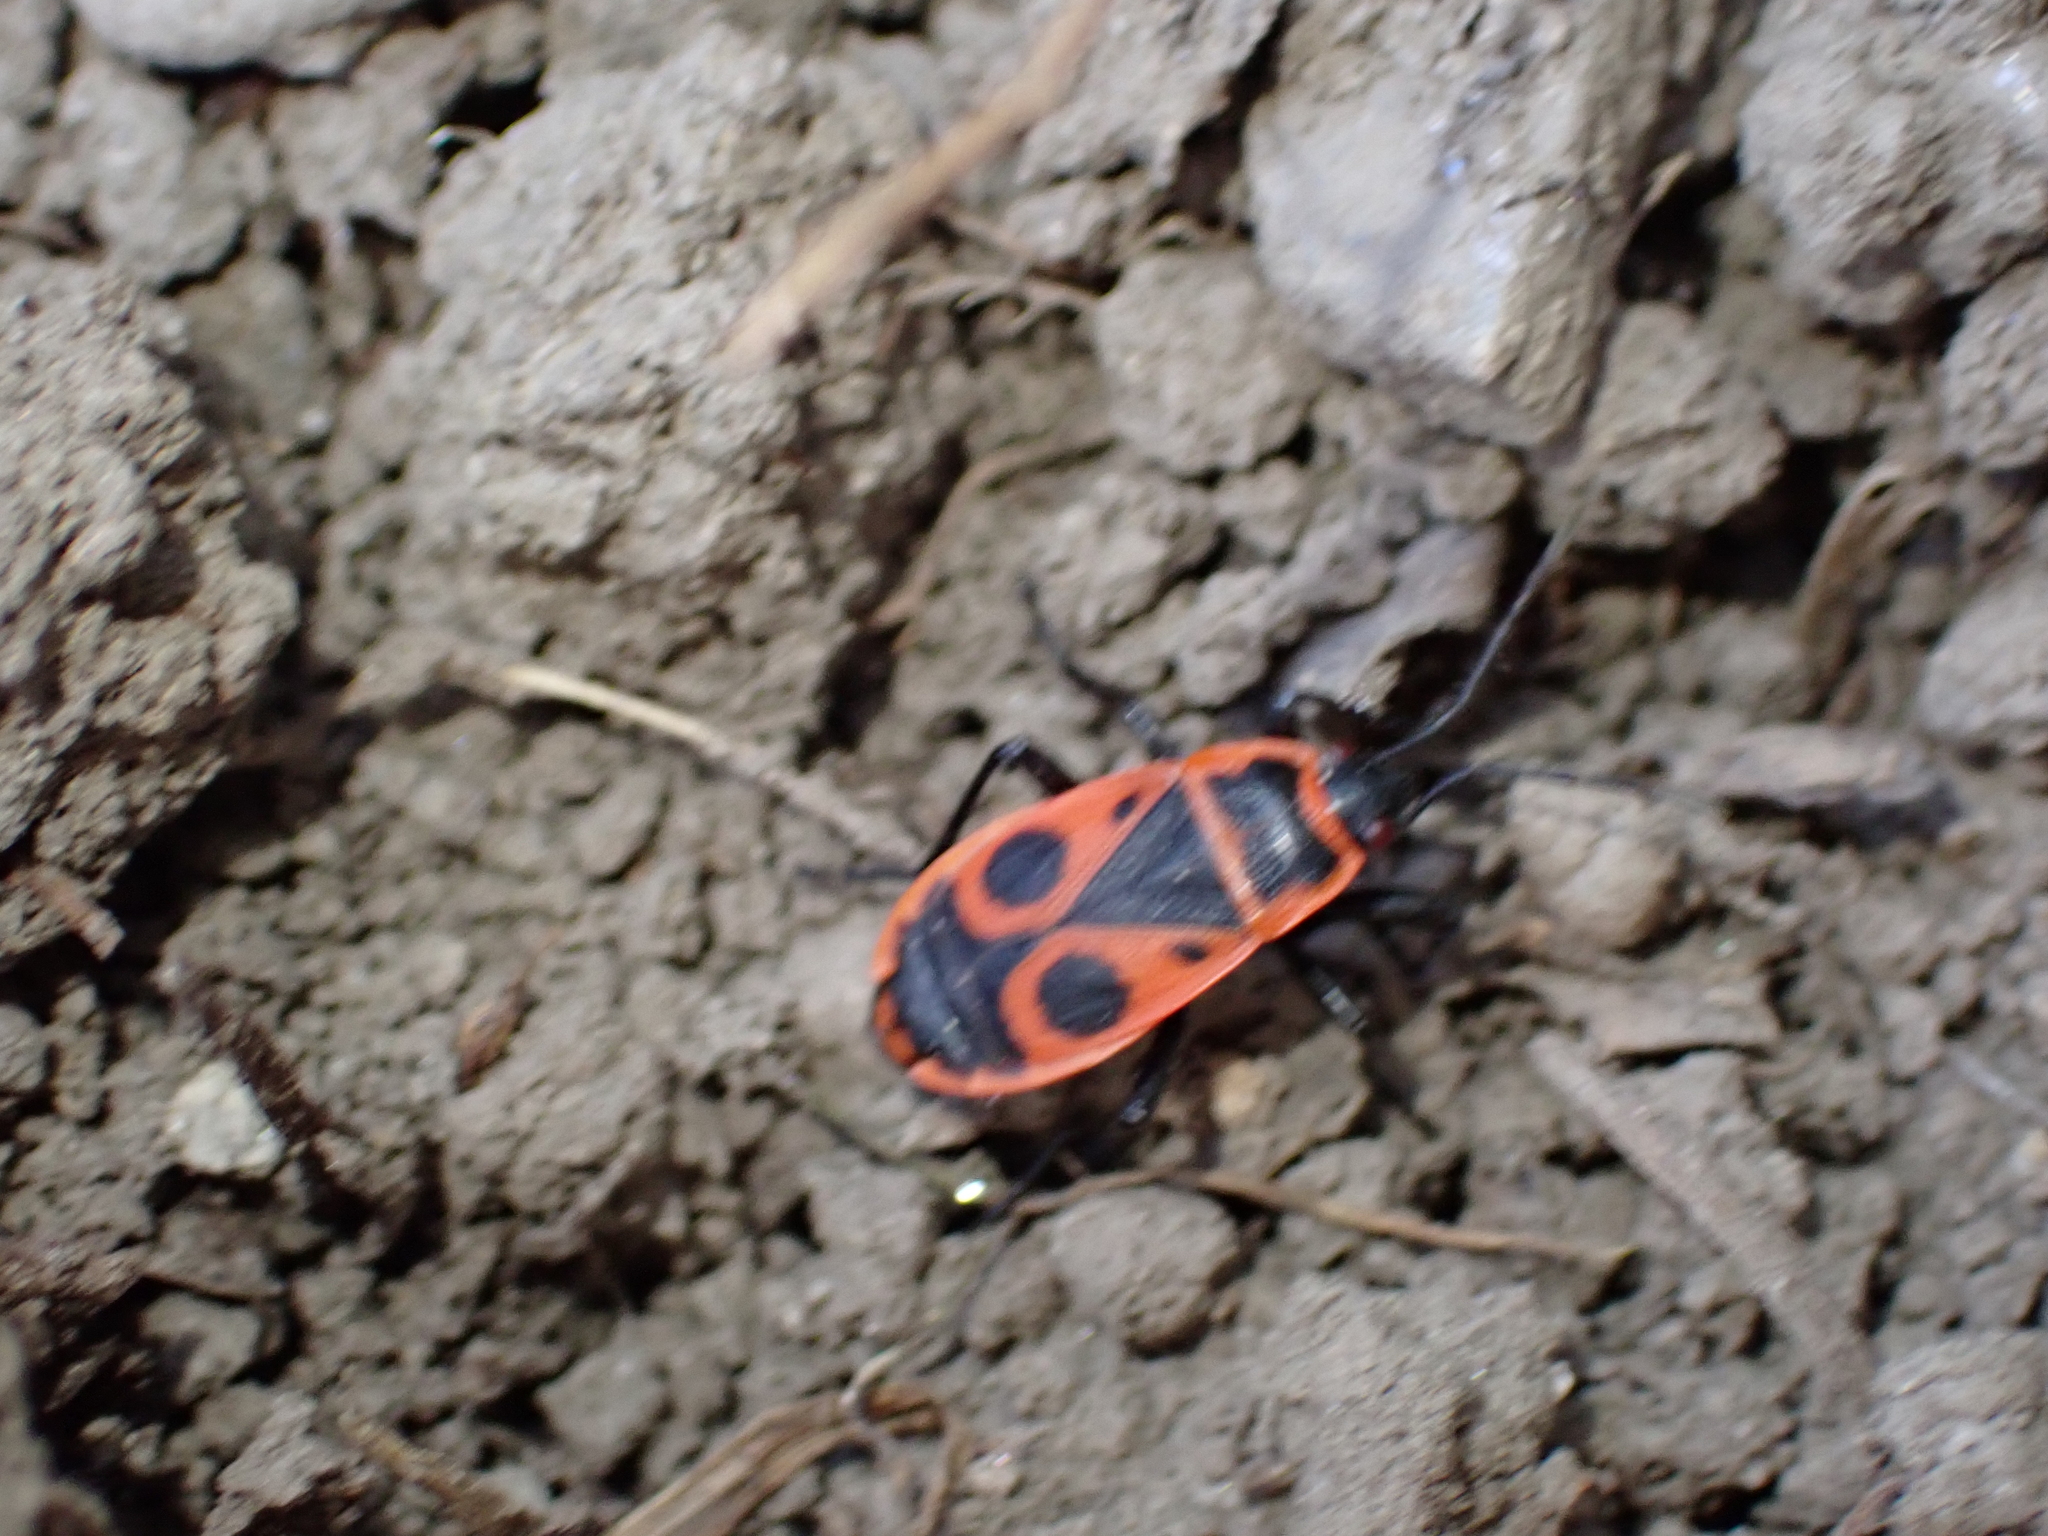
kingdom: Animalia
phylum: Arthropoda
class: Insecta
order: Hemiptera
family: Pyrrhocoridae
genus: Pyrrhocoris
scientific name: Pyrrhocoris apterus
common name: Firebug
